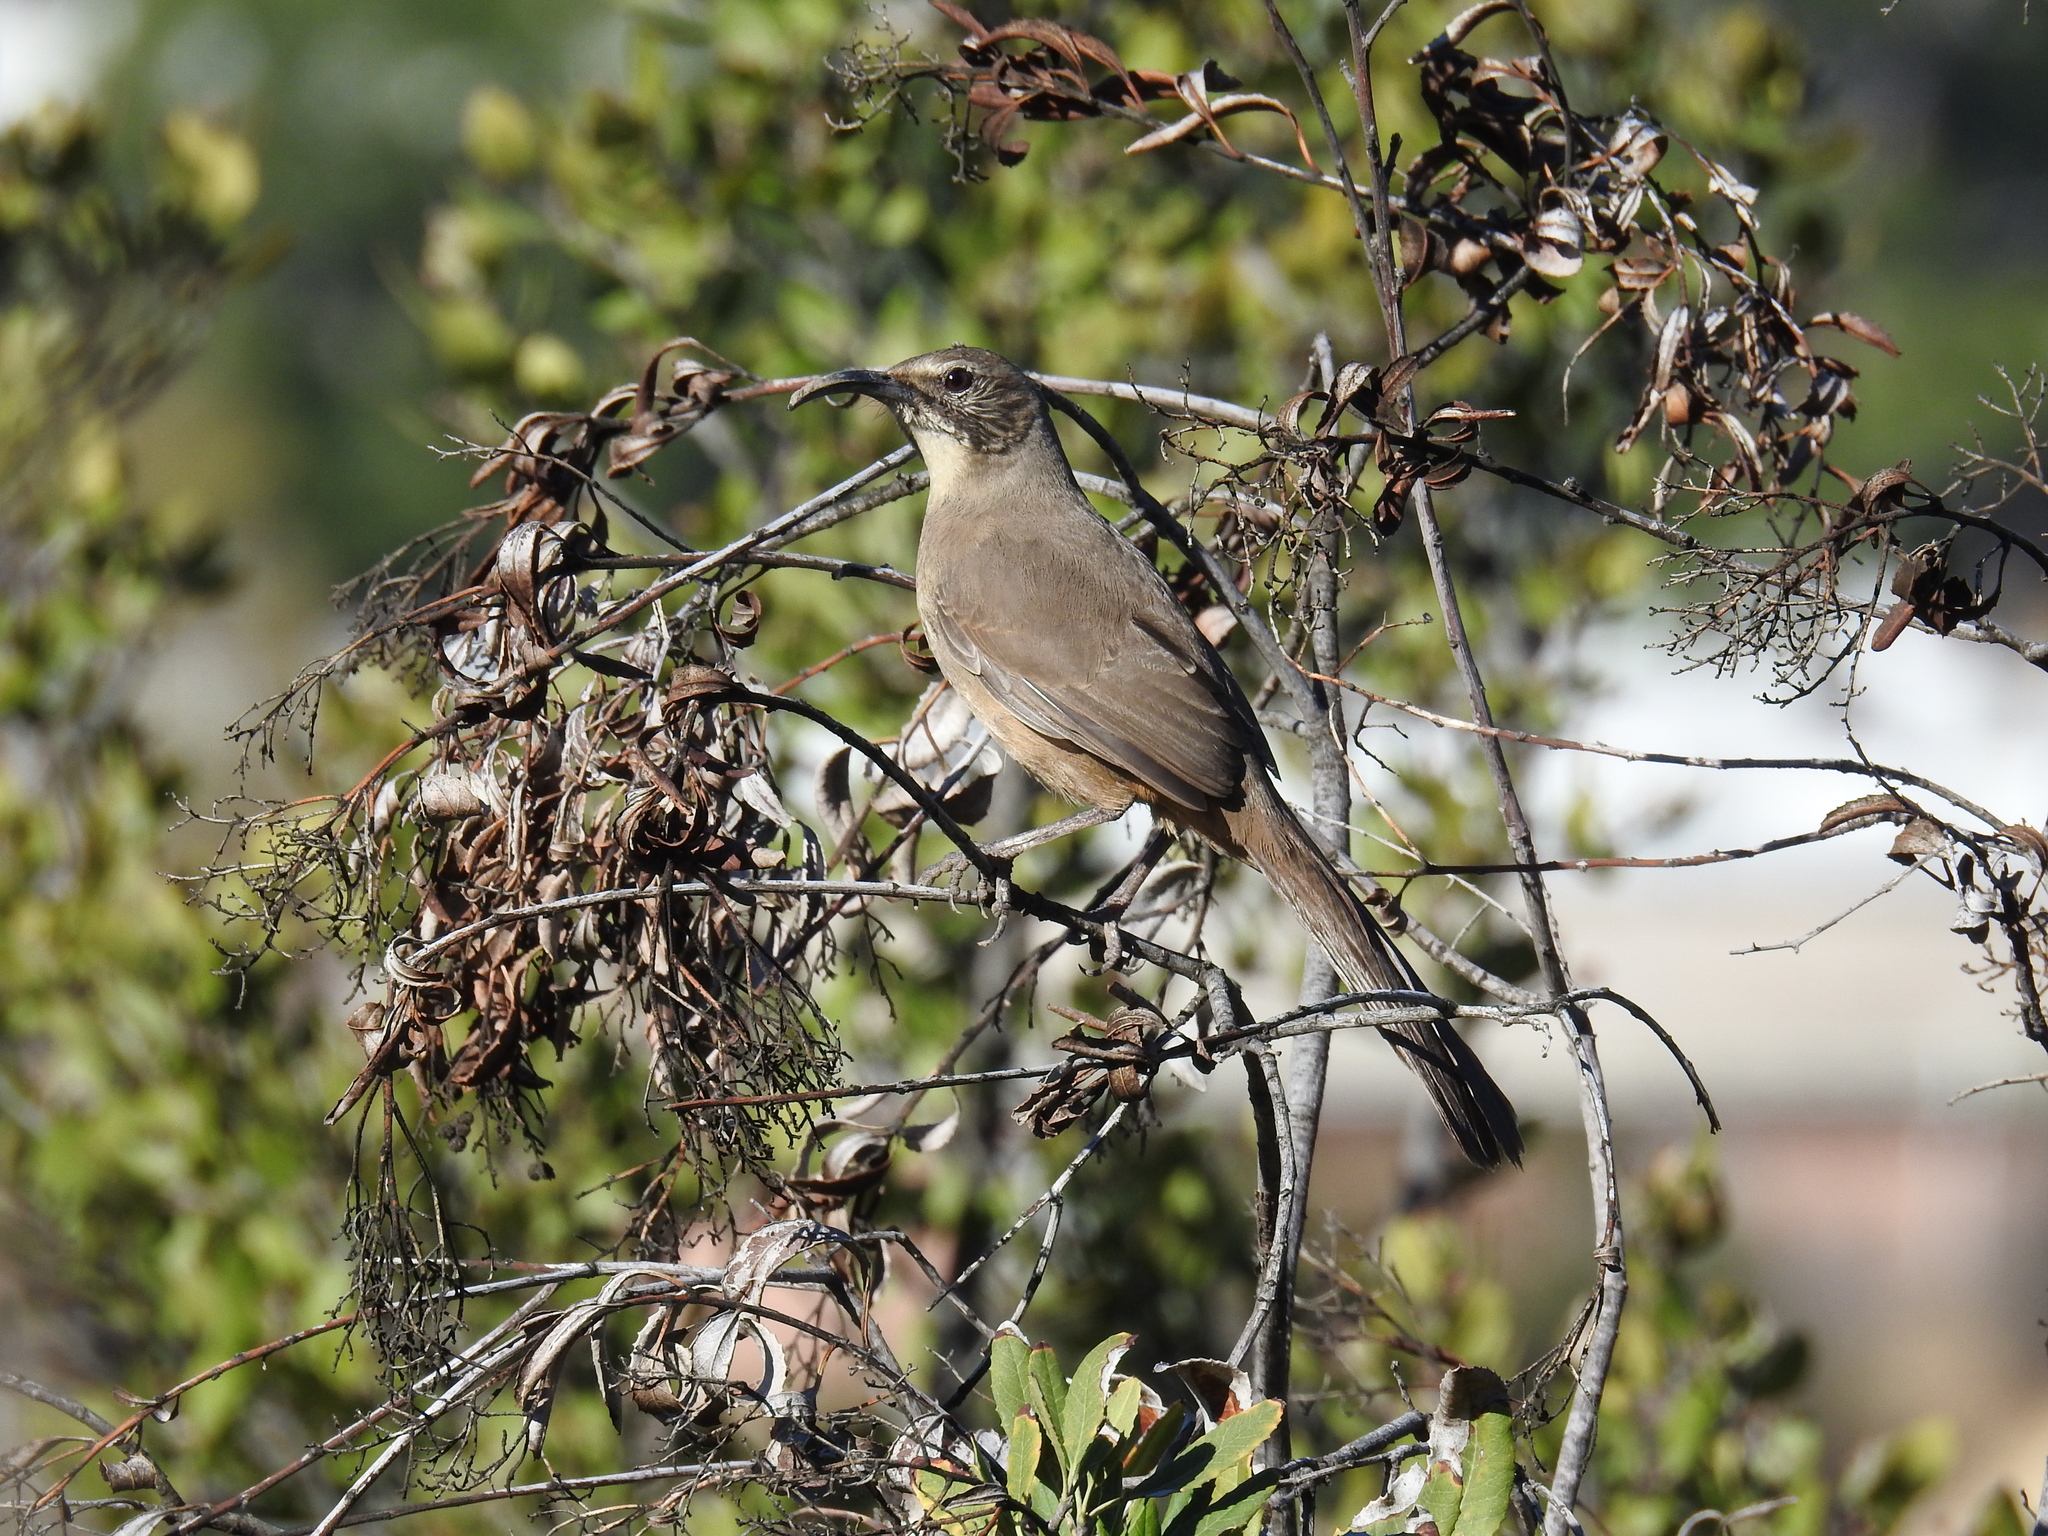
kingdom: Animalia
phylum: Chordata
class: Aves
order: Passeriformes
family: Mimidae
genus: Toxostoma
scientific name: Toxostoma redivivum
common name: California thrasher
